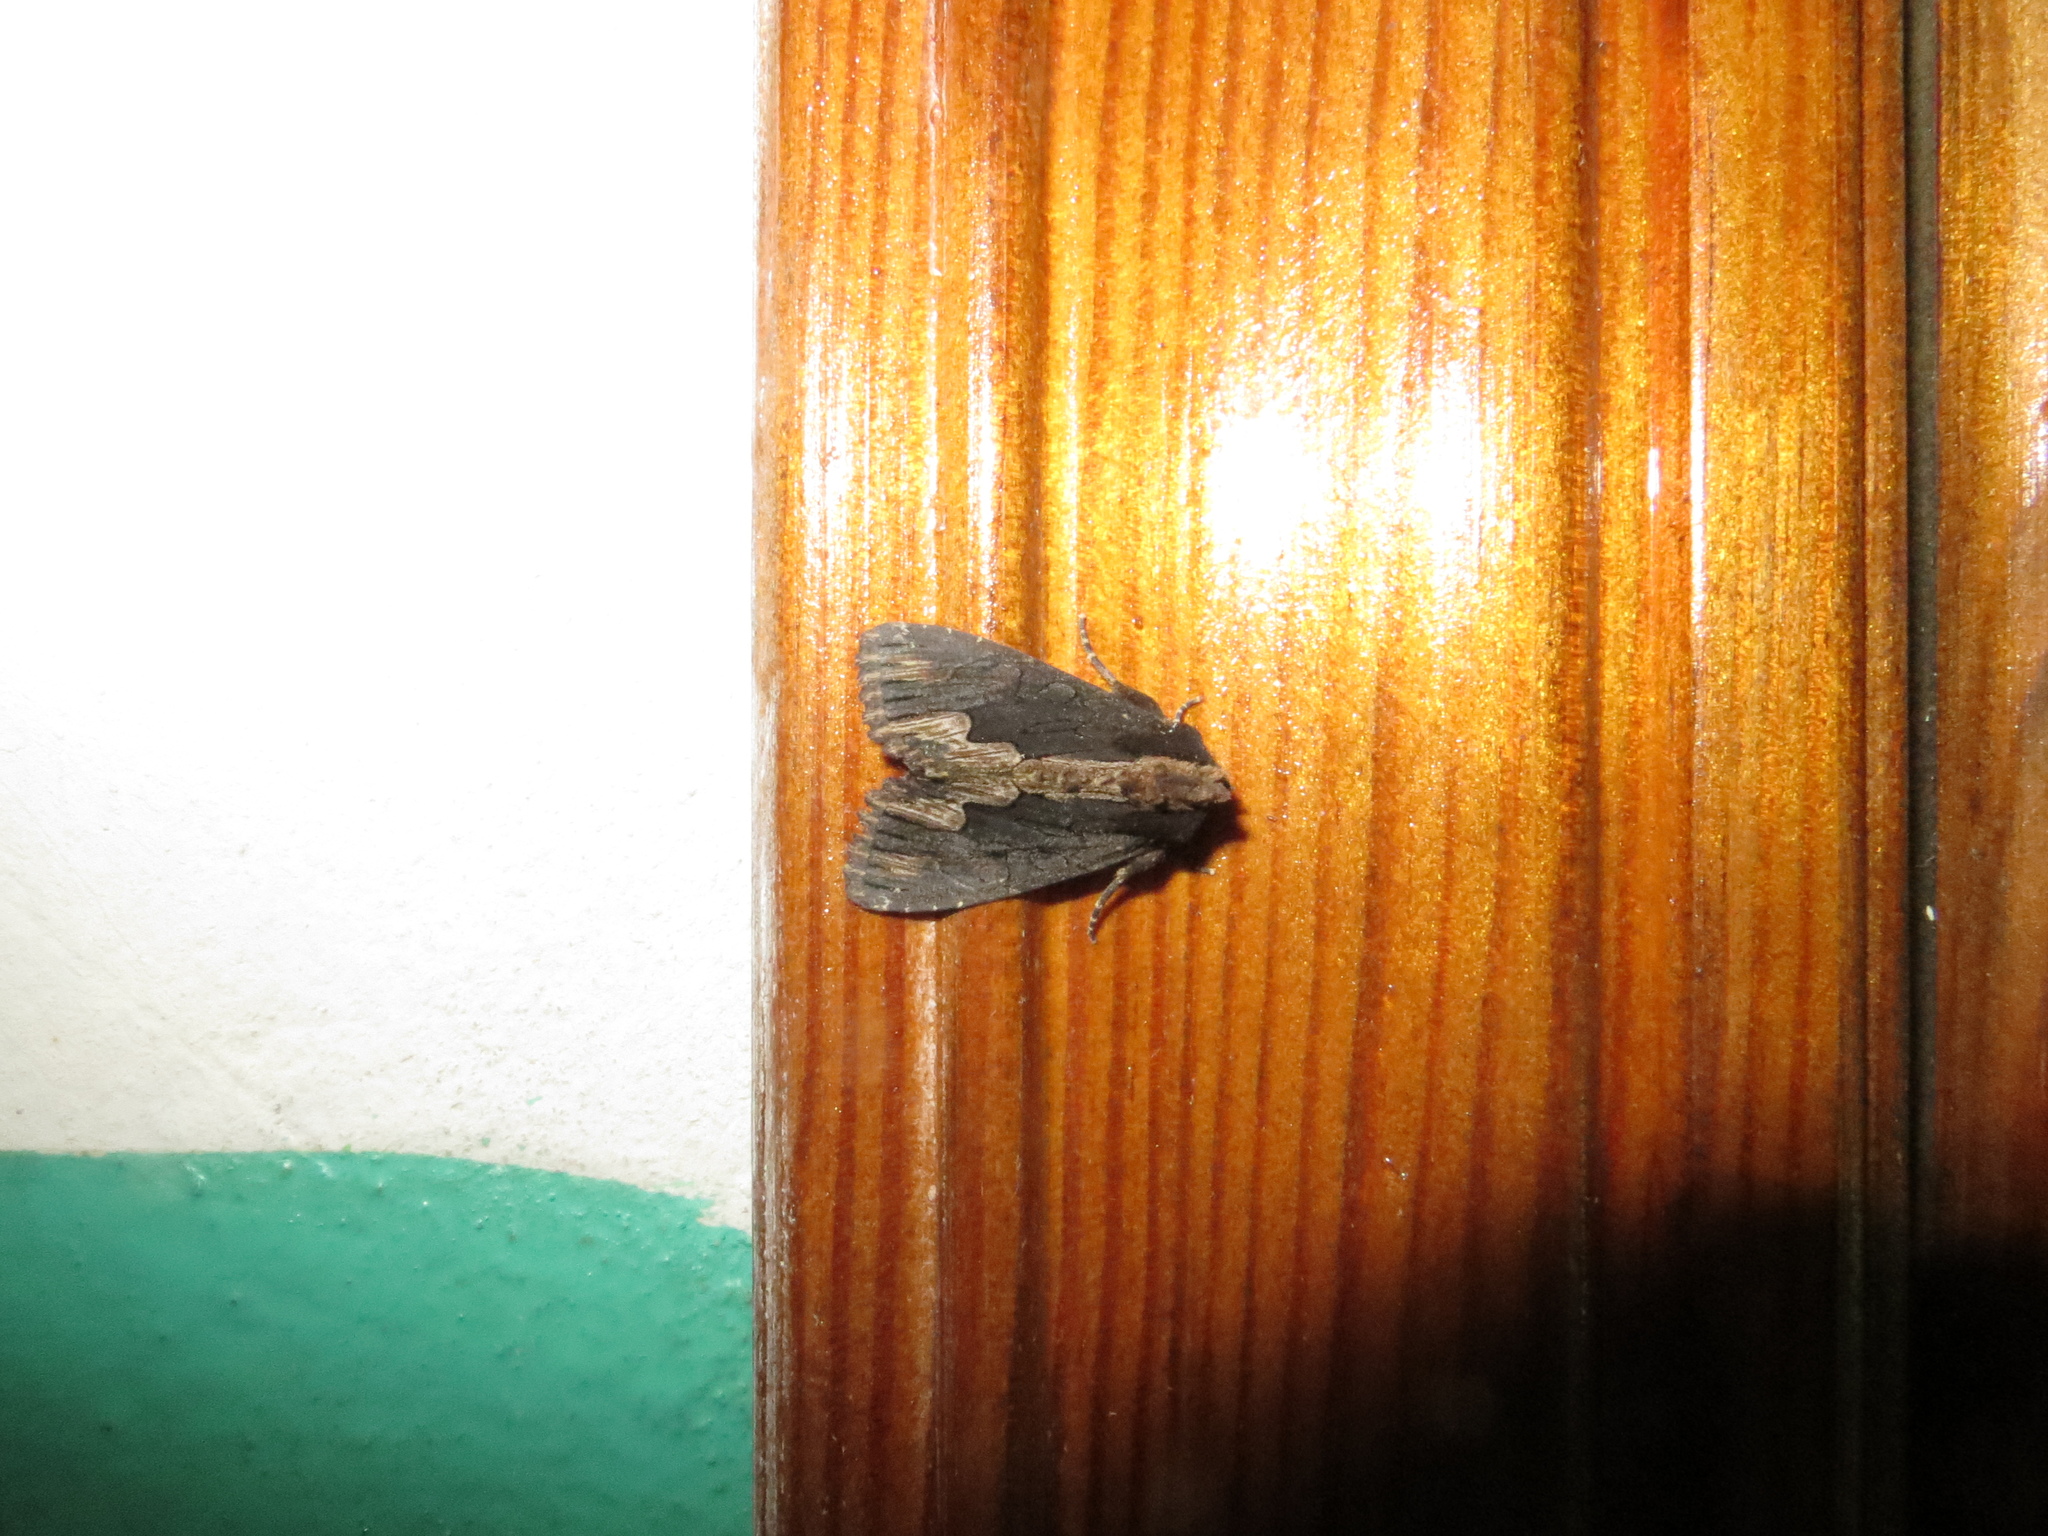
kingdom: Animalia
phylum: Arthropoda
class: Insecta
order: Lepidoptera
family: Noctuidae
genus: Dypterygia
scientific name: Dypterygia scabriuscula
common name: Bird's wing
